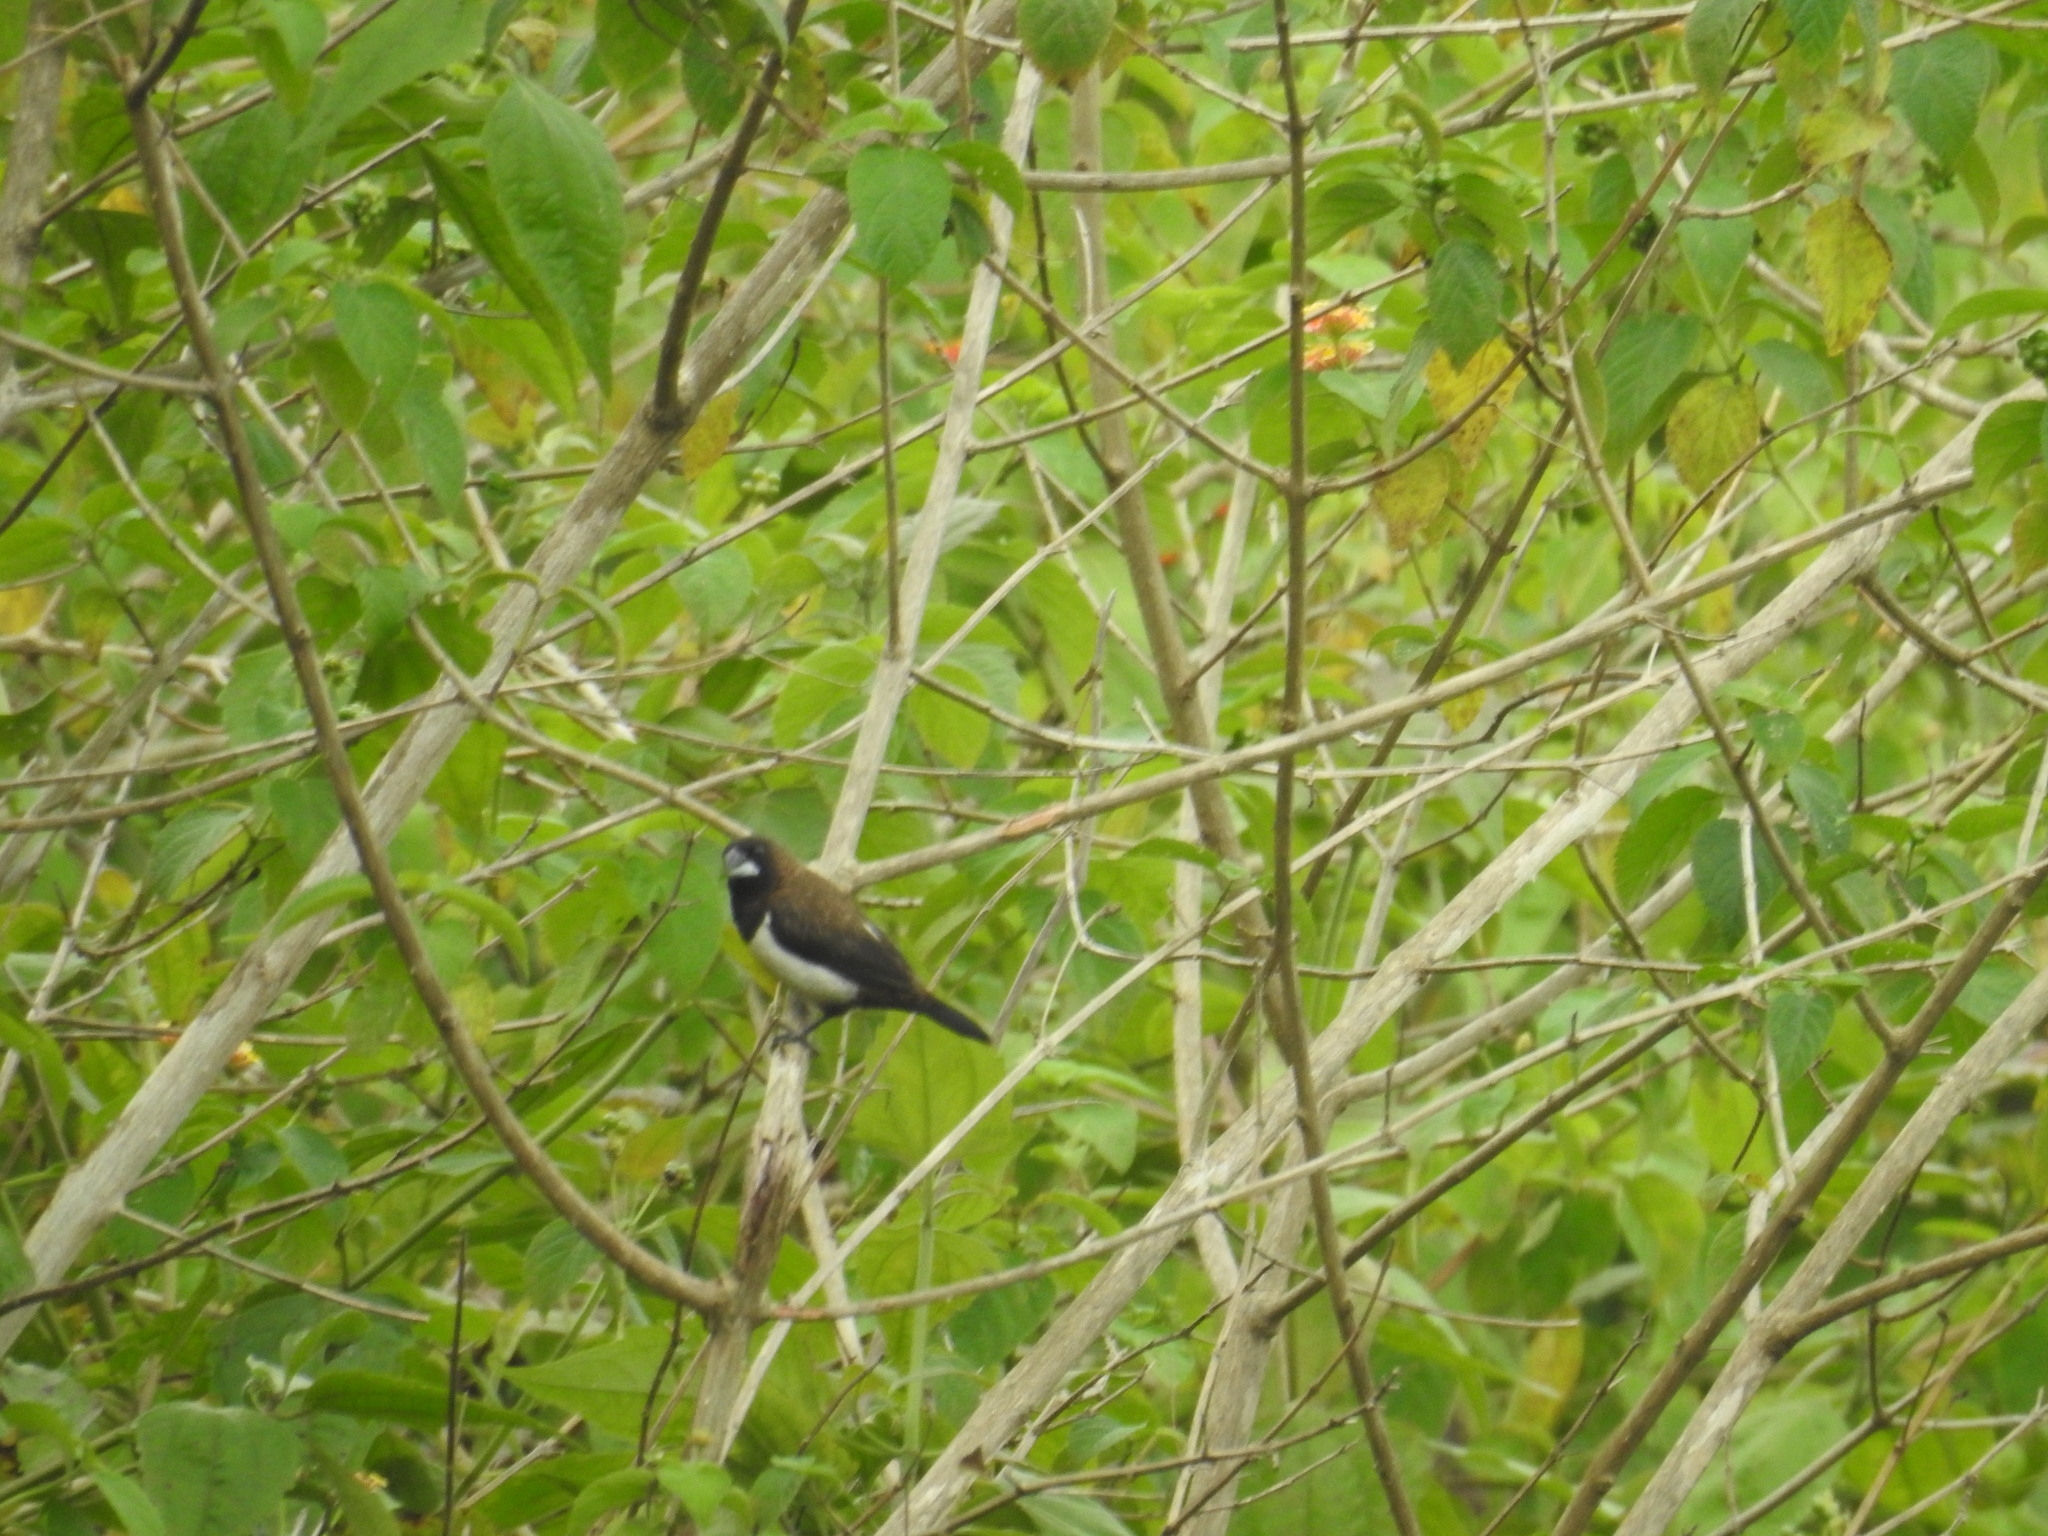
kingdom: Animalia
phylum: Chordata
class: Aves
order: Passeriformes
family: Estrildidae
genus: Lonchura
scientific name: Lonchura striata
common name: White-rumped munia
